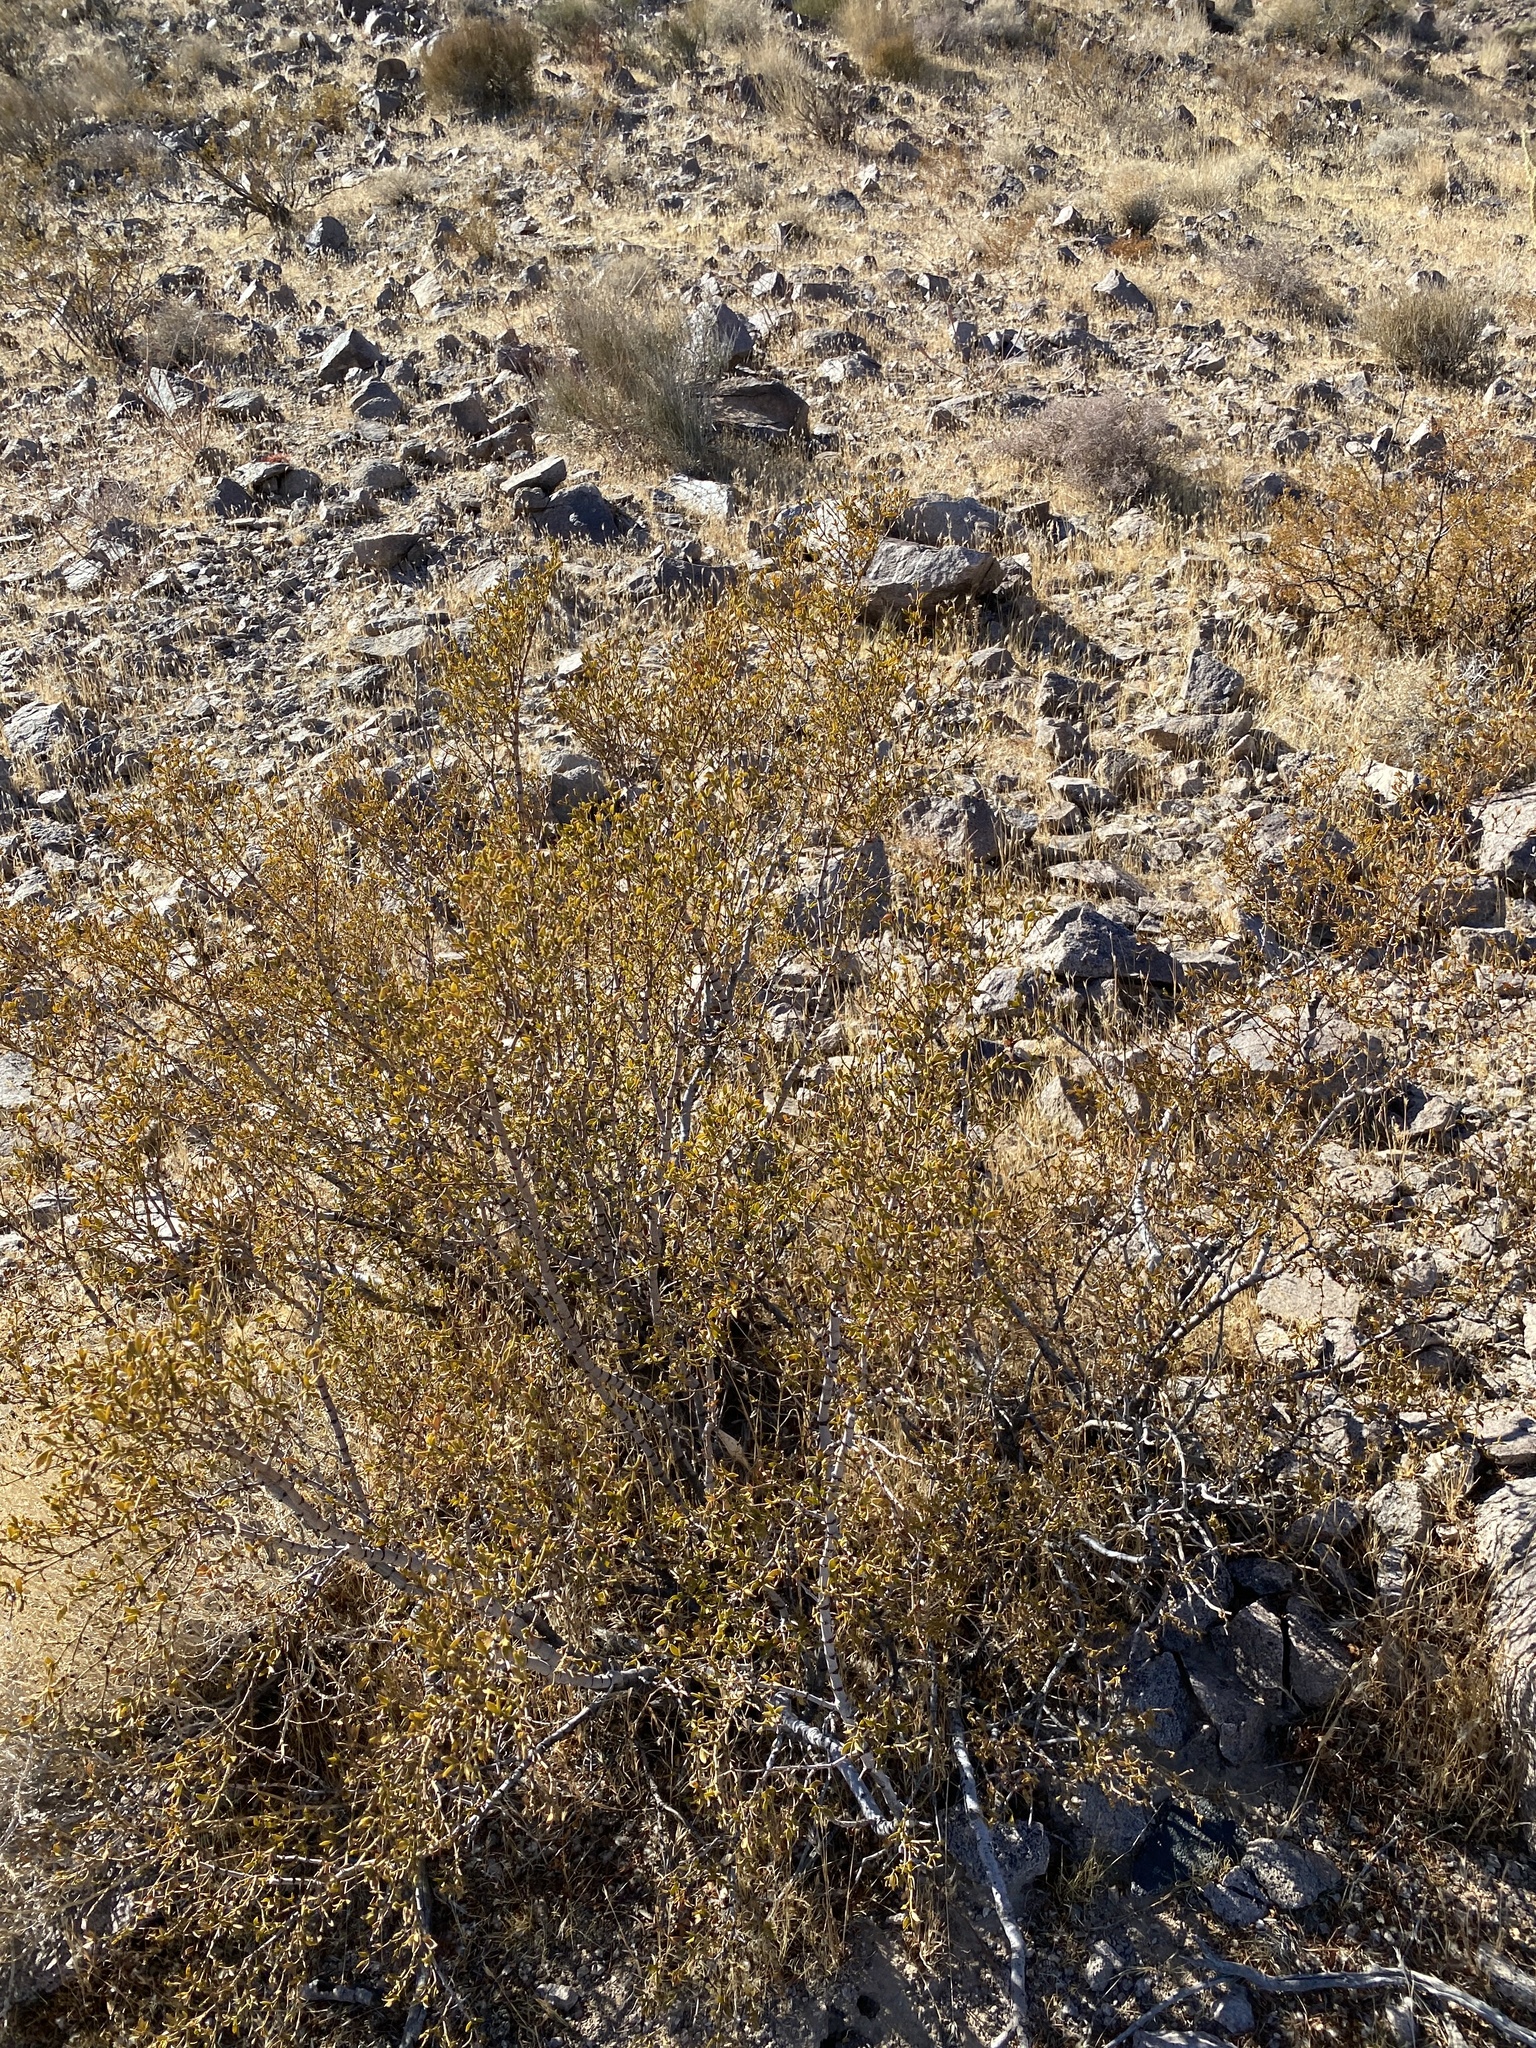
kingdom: Plantae
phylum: Tracheophyta
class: Magnoliopsida
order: Zygophyllales
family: Zygophyllaceae
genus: Larrea
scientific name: Larrea tridentata
